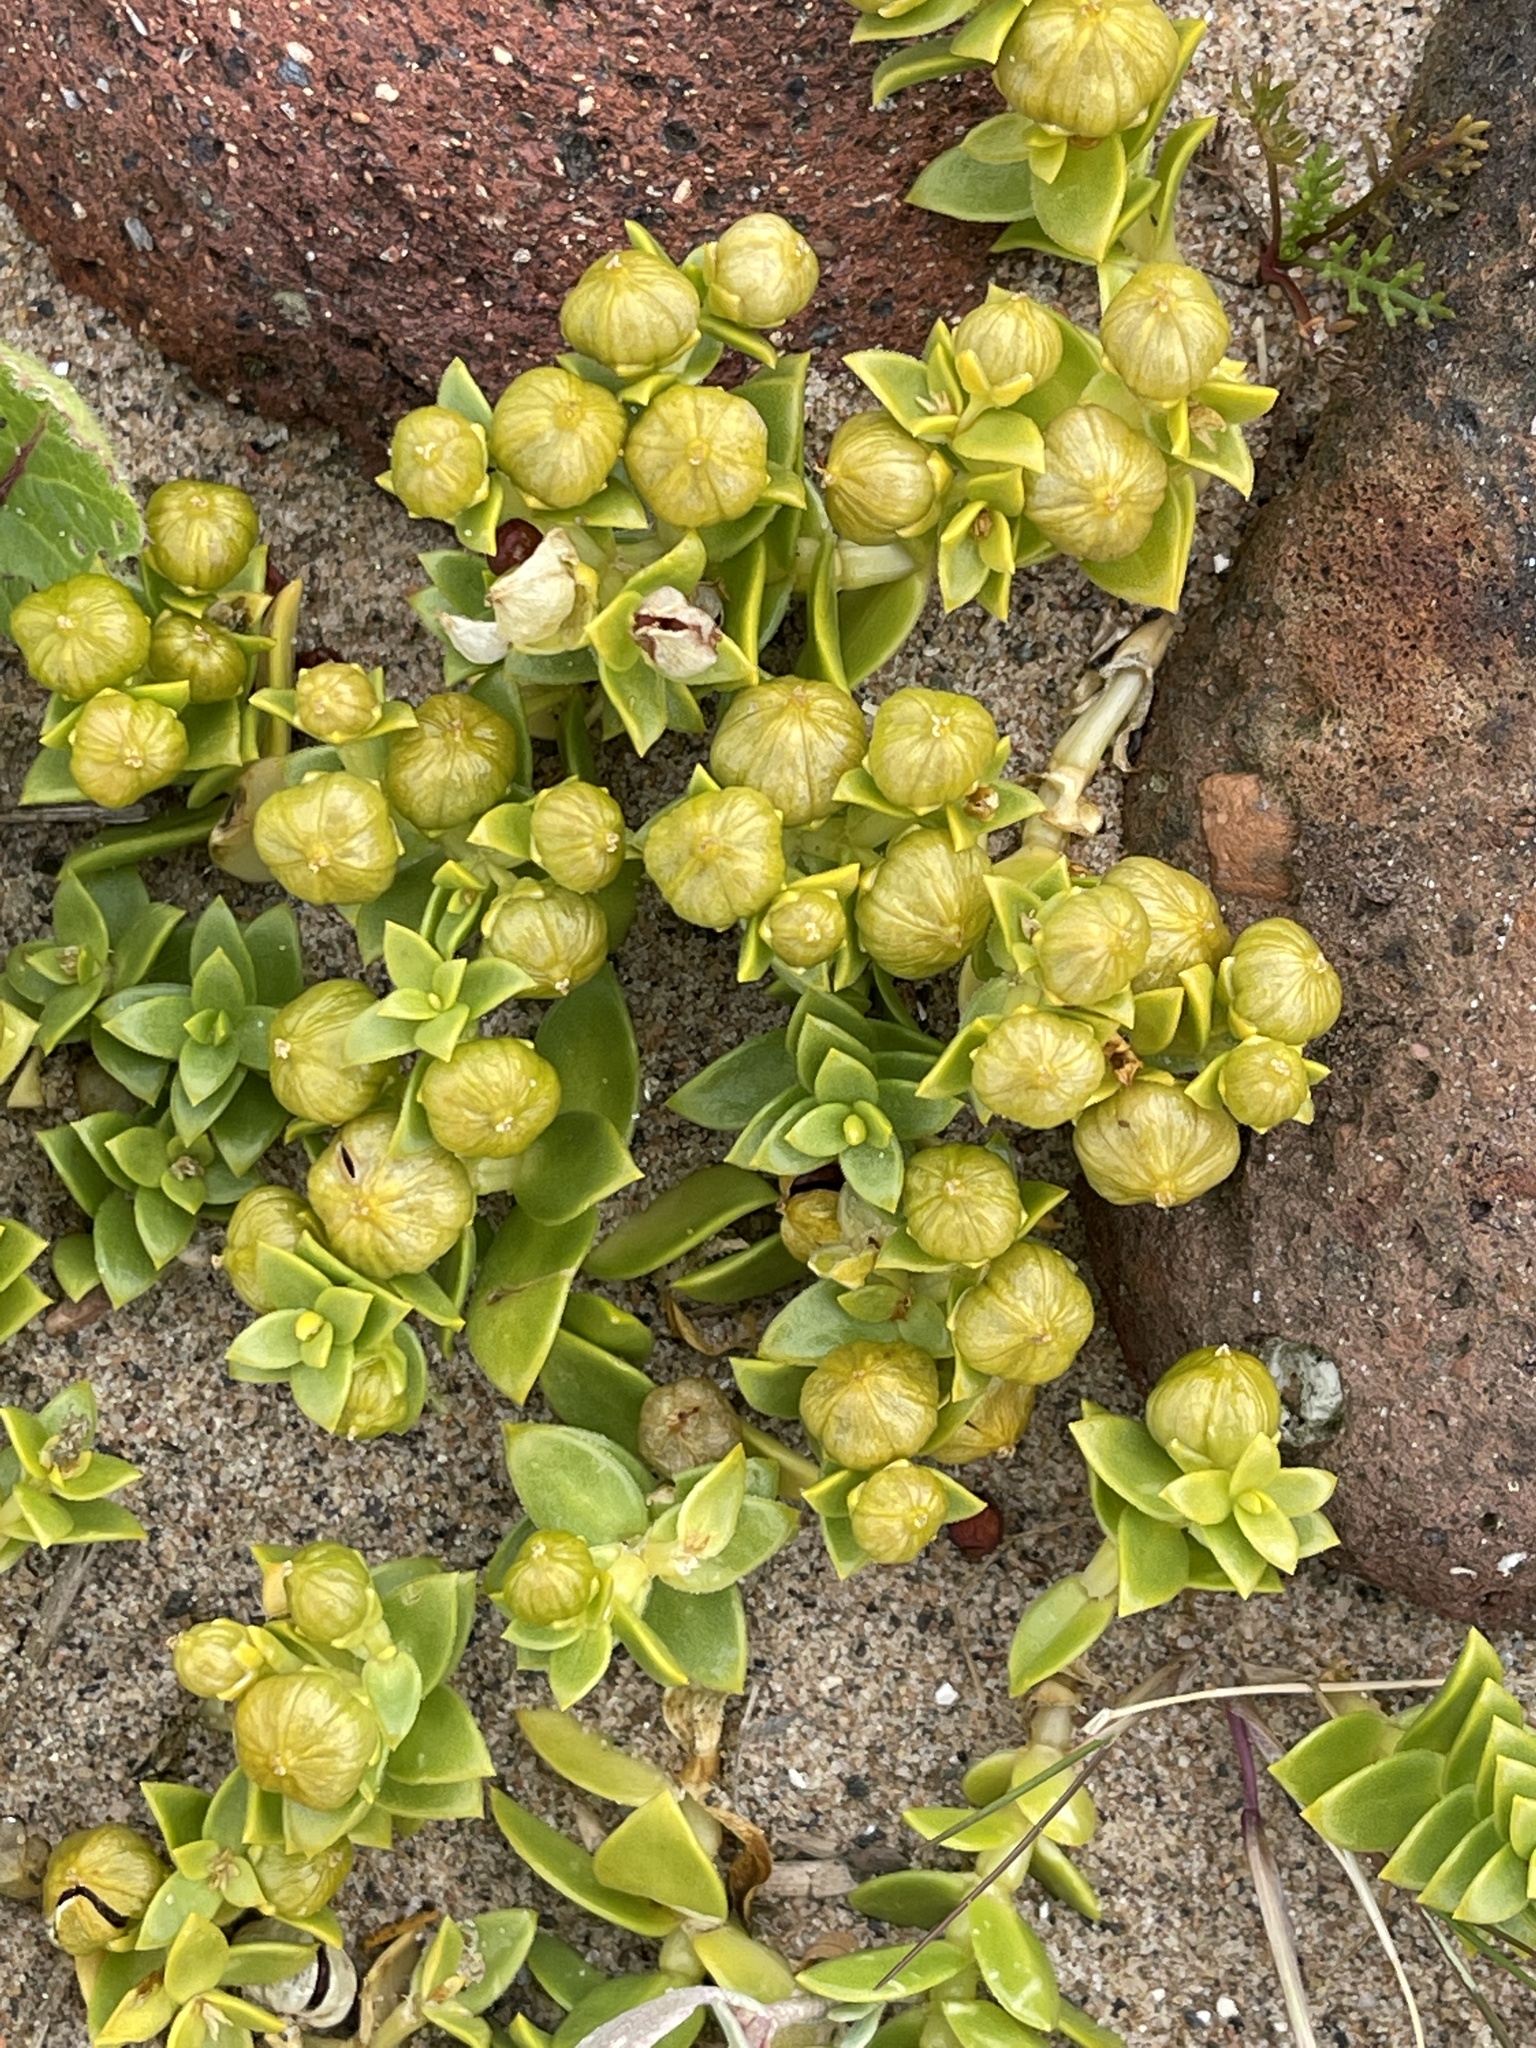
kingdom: Plantae
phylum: Tracheophyta
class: Magnoliopsida
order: Caryophyllales
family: Caryophyllaceae
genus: Honckenya
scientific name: Honckenya peploides
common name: Sea sandwort
